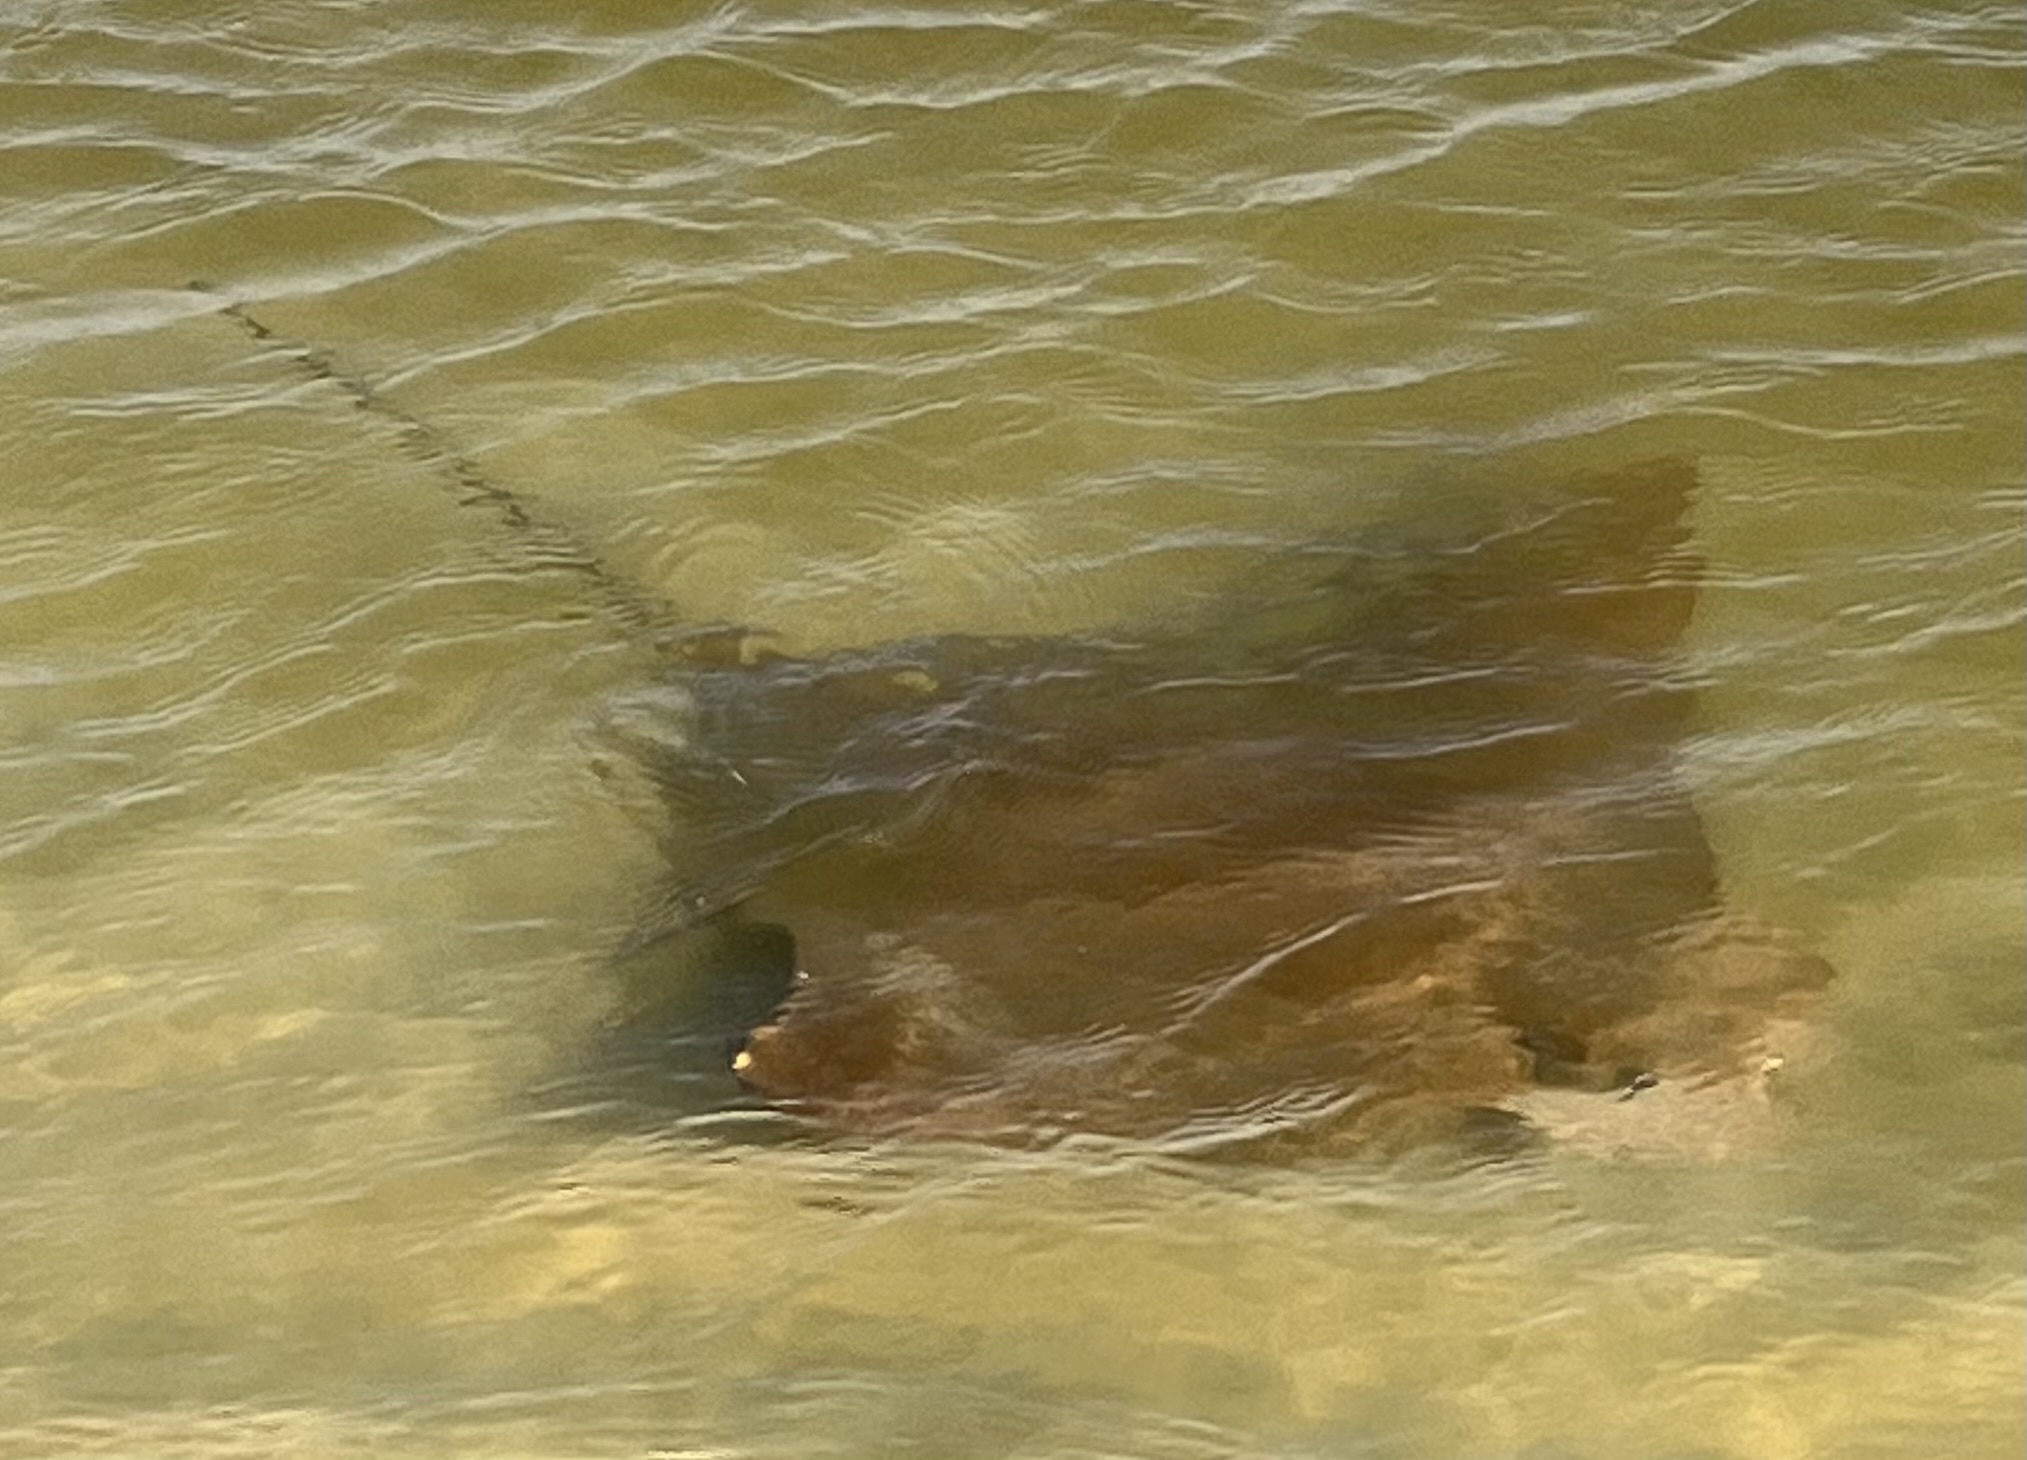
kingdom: Animalia
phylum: Chordata
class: Elasmobranchii
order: Myliobatiformes
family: Myliobatidae
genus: Rhinoptera
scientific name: Rhinoptera bonasus
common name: Cownose ray
